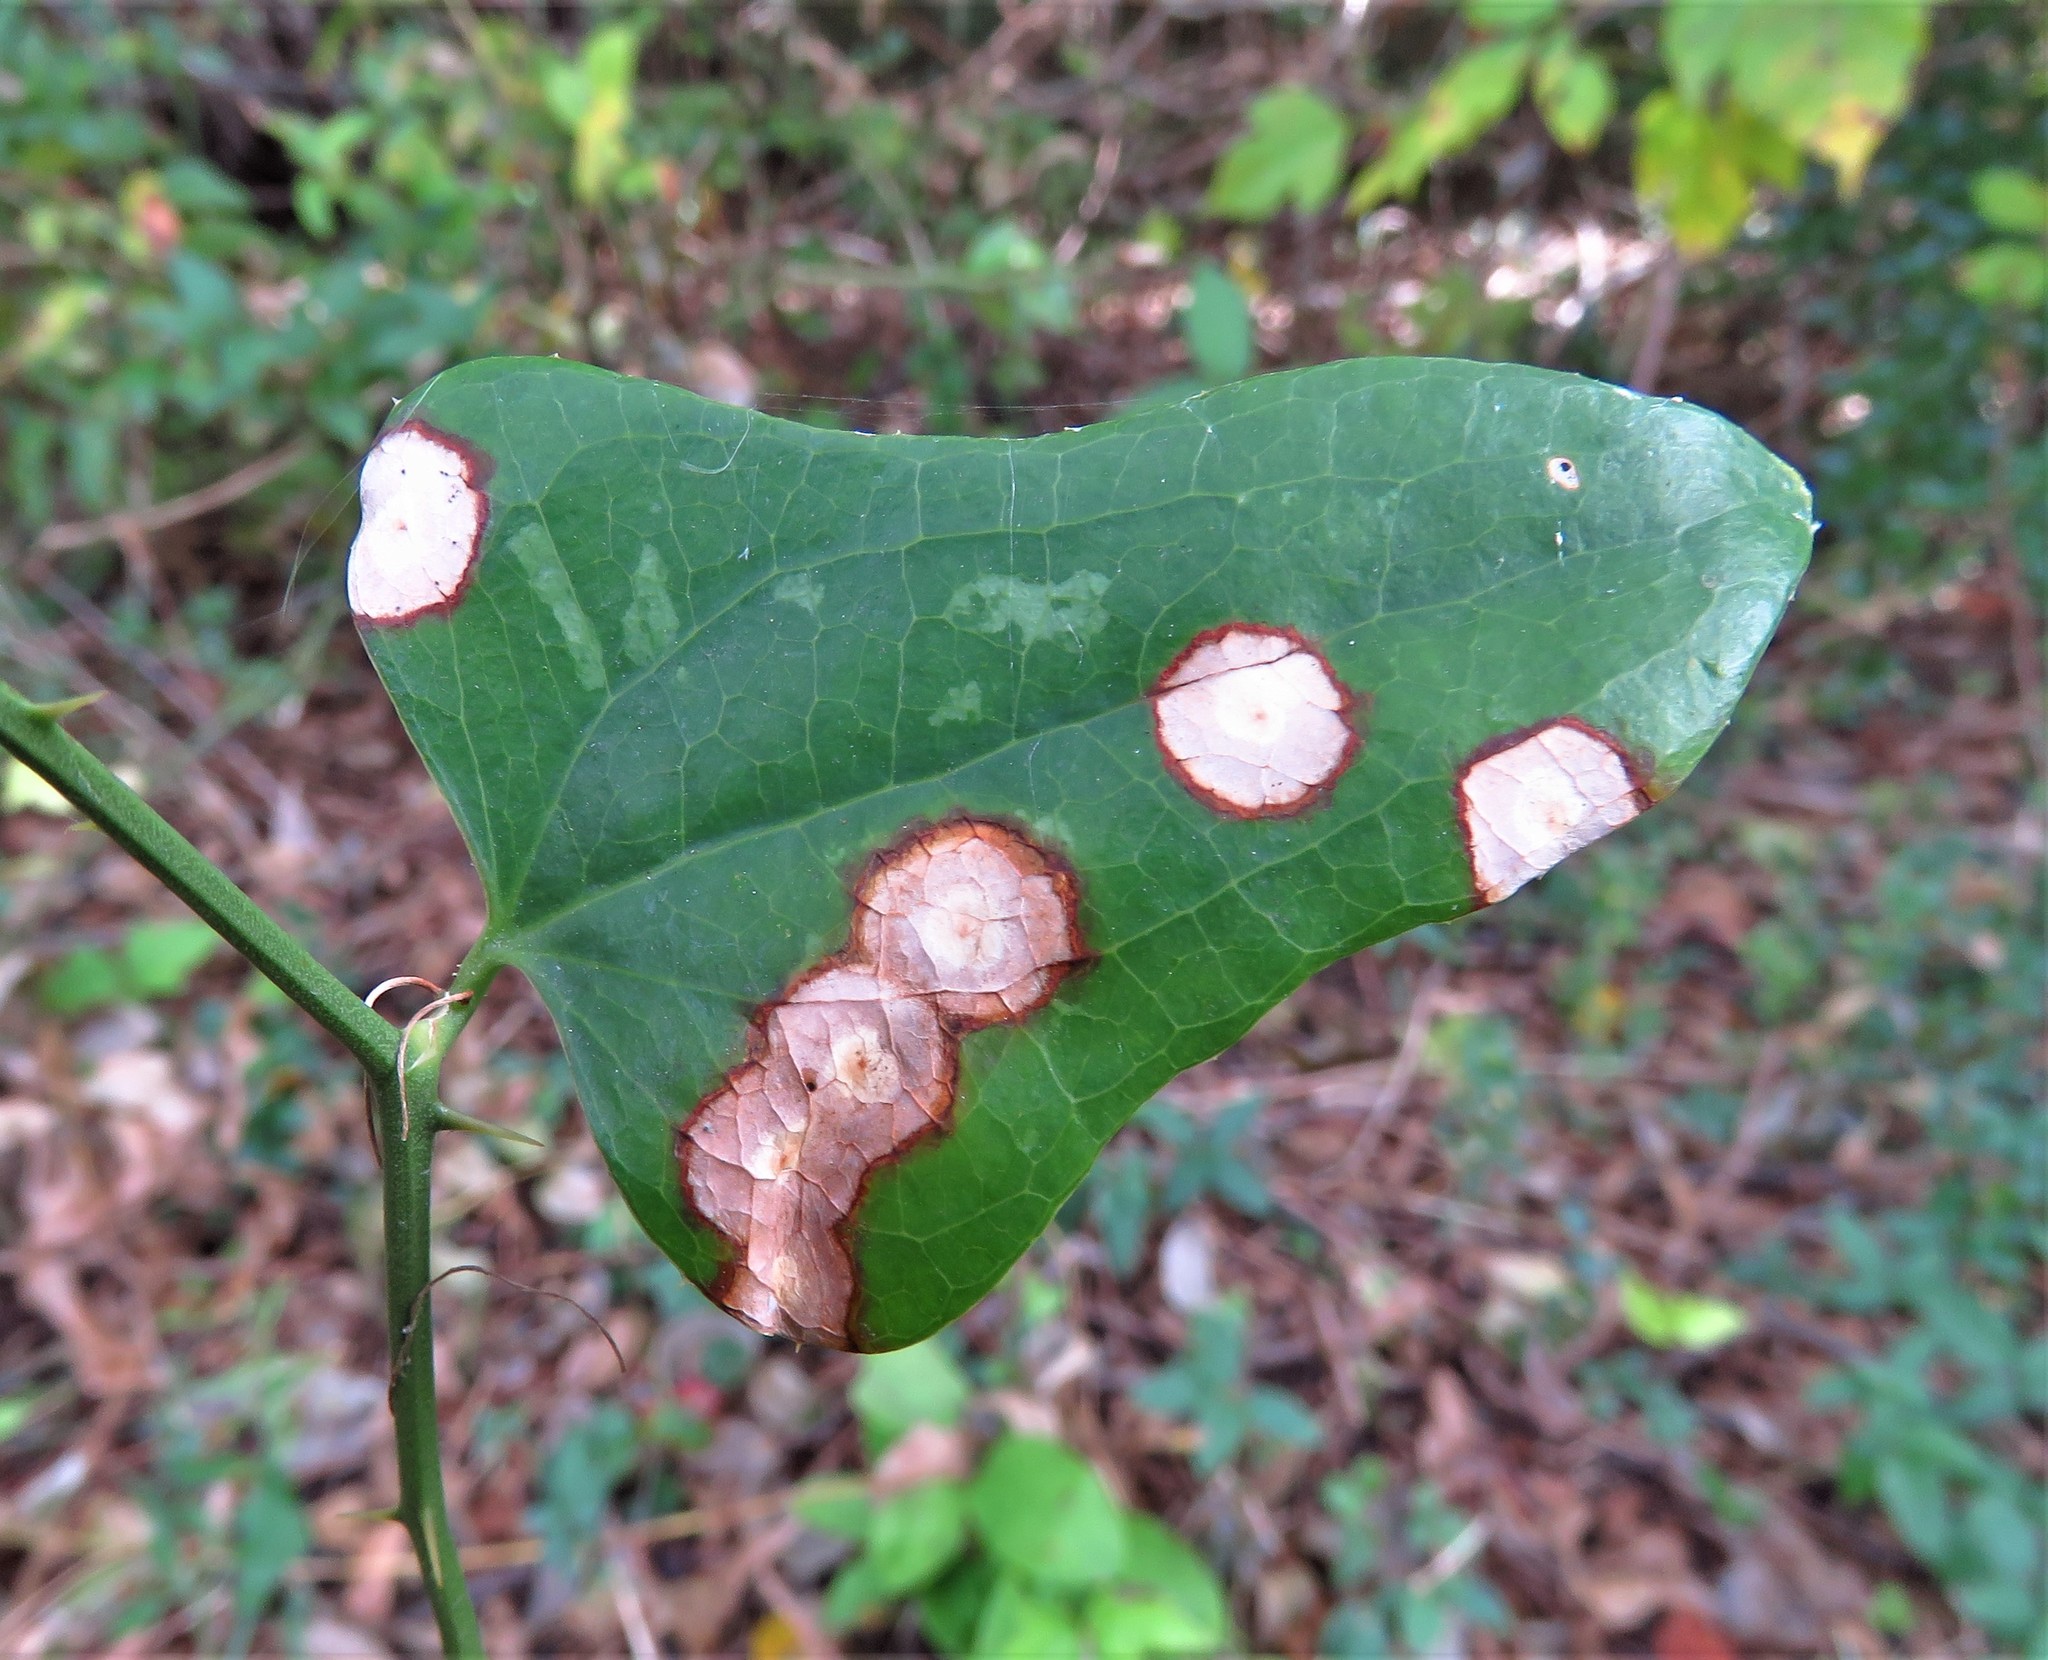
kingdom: Plantae
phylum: Tracheophyta
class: Liliopsida
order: Liliales
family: Smilacaceae
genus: Smilax
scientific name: Smilax bona-nox
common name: Catbrier
